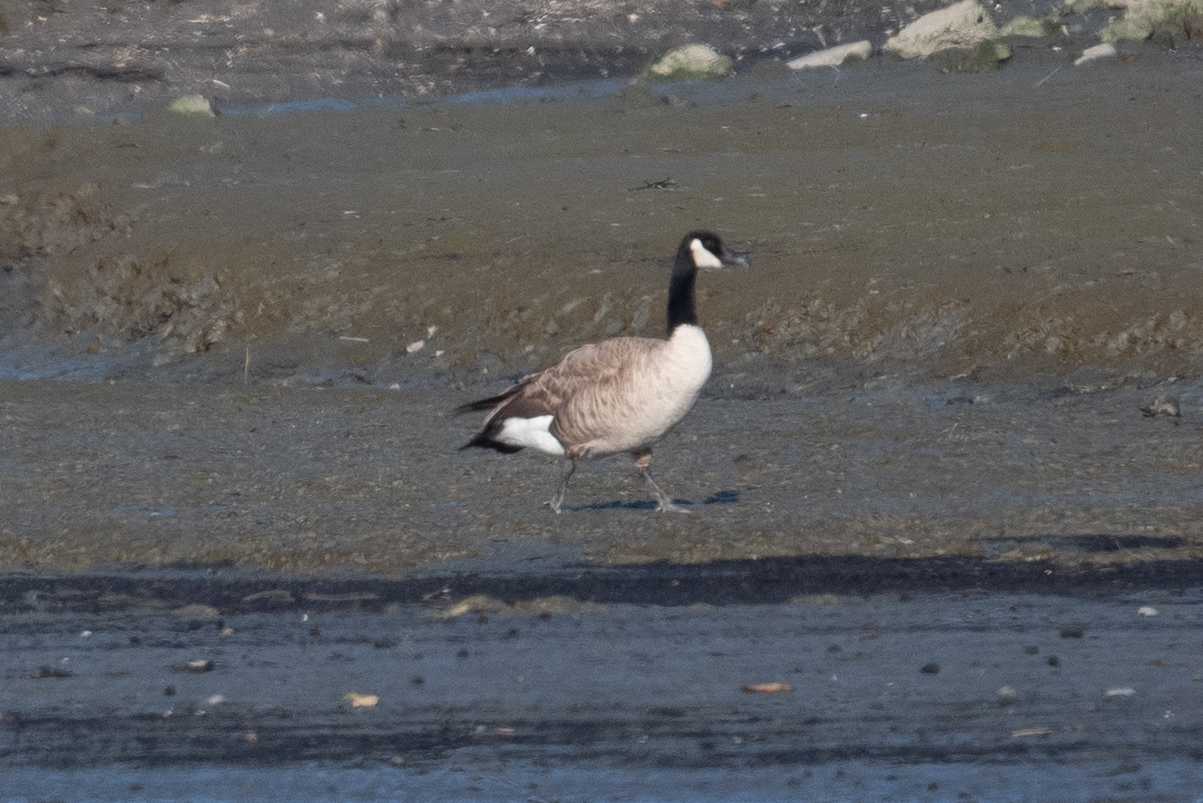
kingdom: Animalia
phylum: Chordata
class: Aves
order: Anseriformes
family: Anatidae
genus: Branta
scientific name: Branta canadensis
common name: Canada goose
